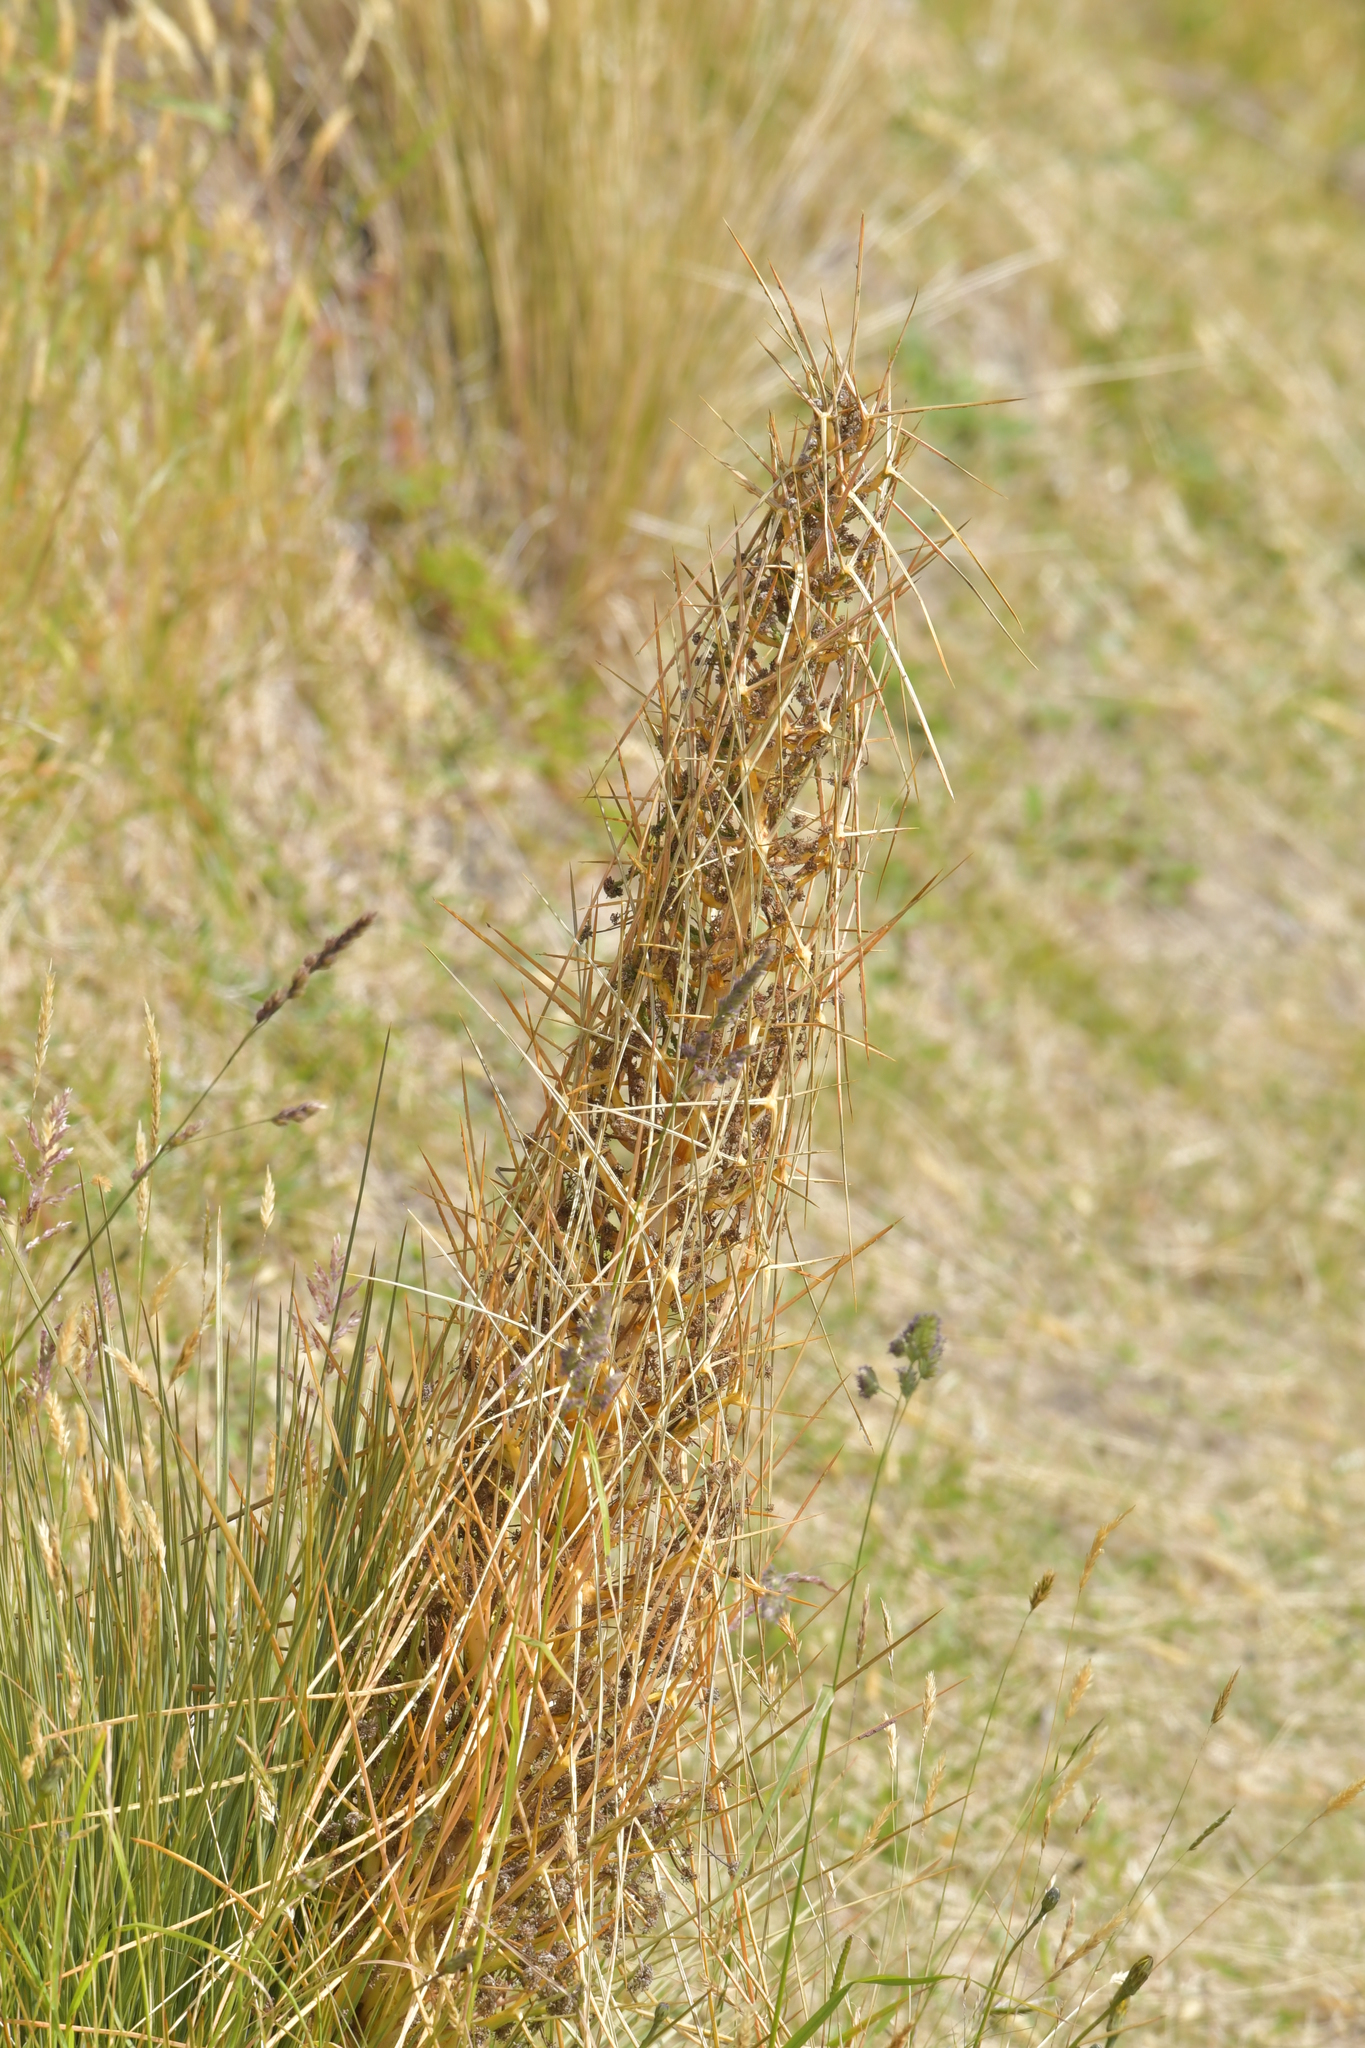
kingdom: Plantae
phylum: Tracheophyta
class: Magnoliopsida
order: Apiales
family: Apiaceae
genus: Aciphylla
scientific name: Aciphylla subflabellata
